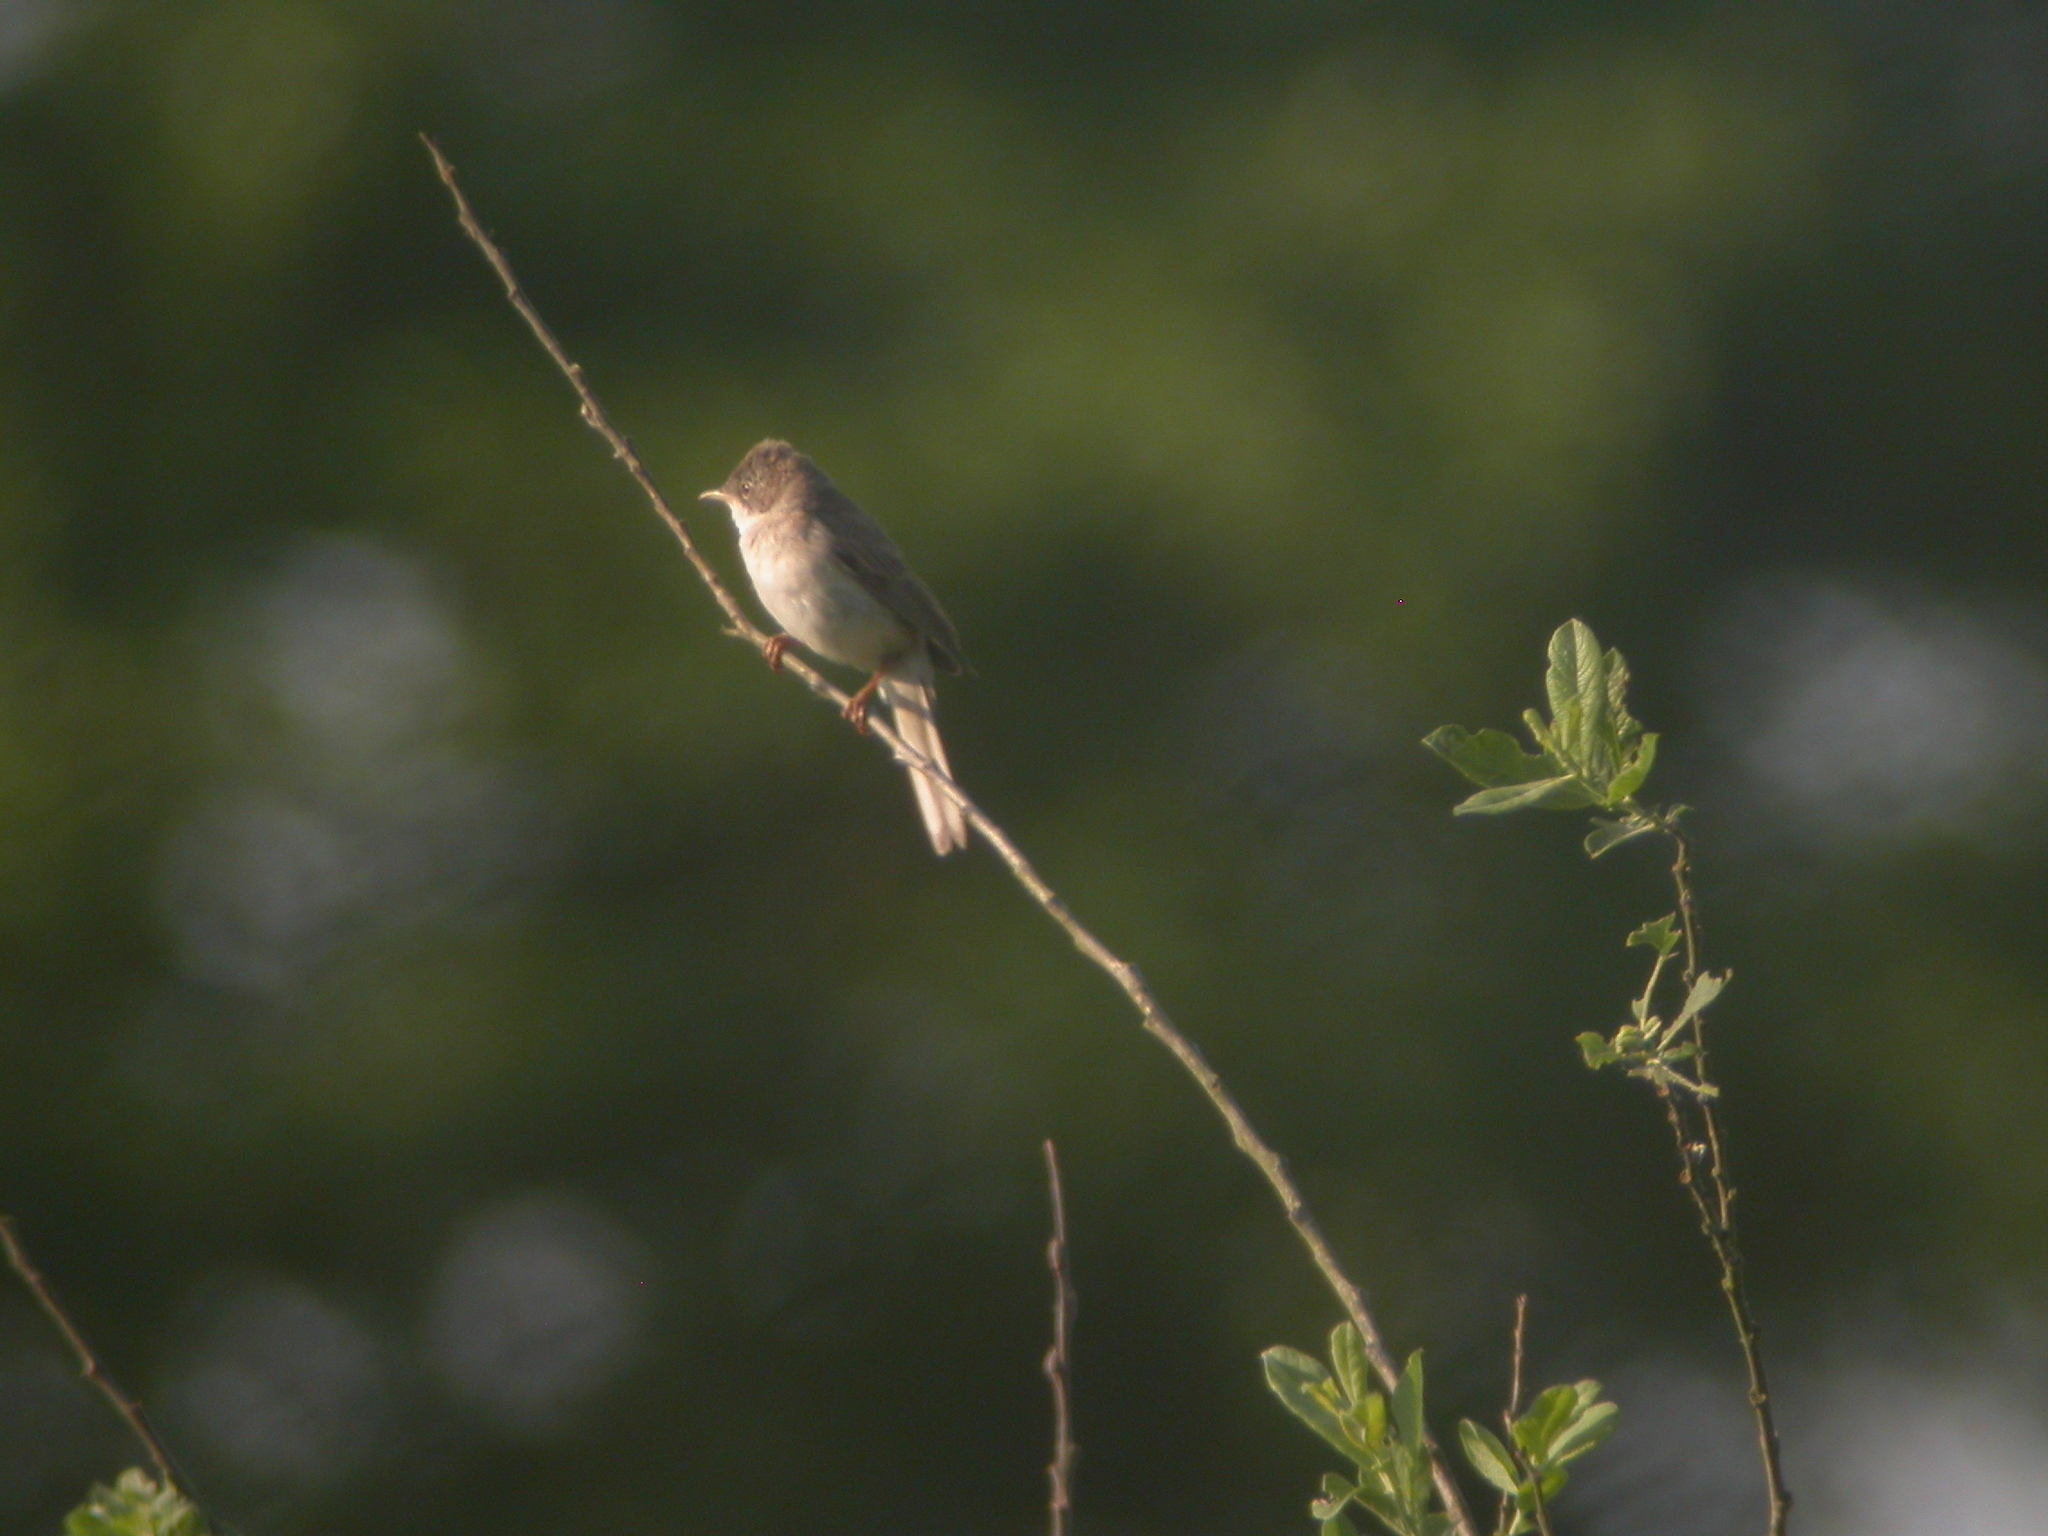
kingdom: Animalia
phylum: Chordata
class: Aves
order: Passeriformes
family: Sylviidae
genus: Sylvia
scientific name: Sylvia communis
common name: Common whitethroat
